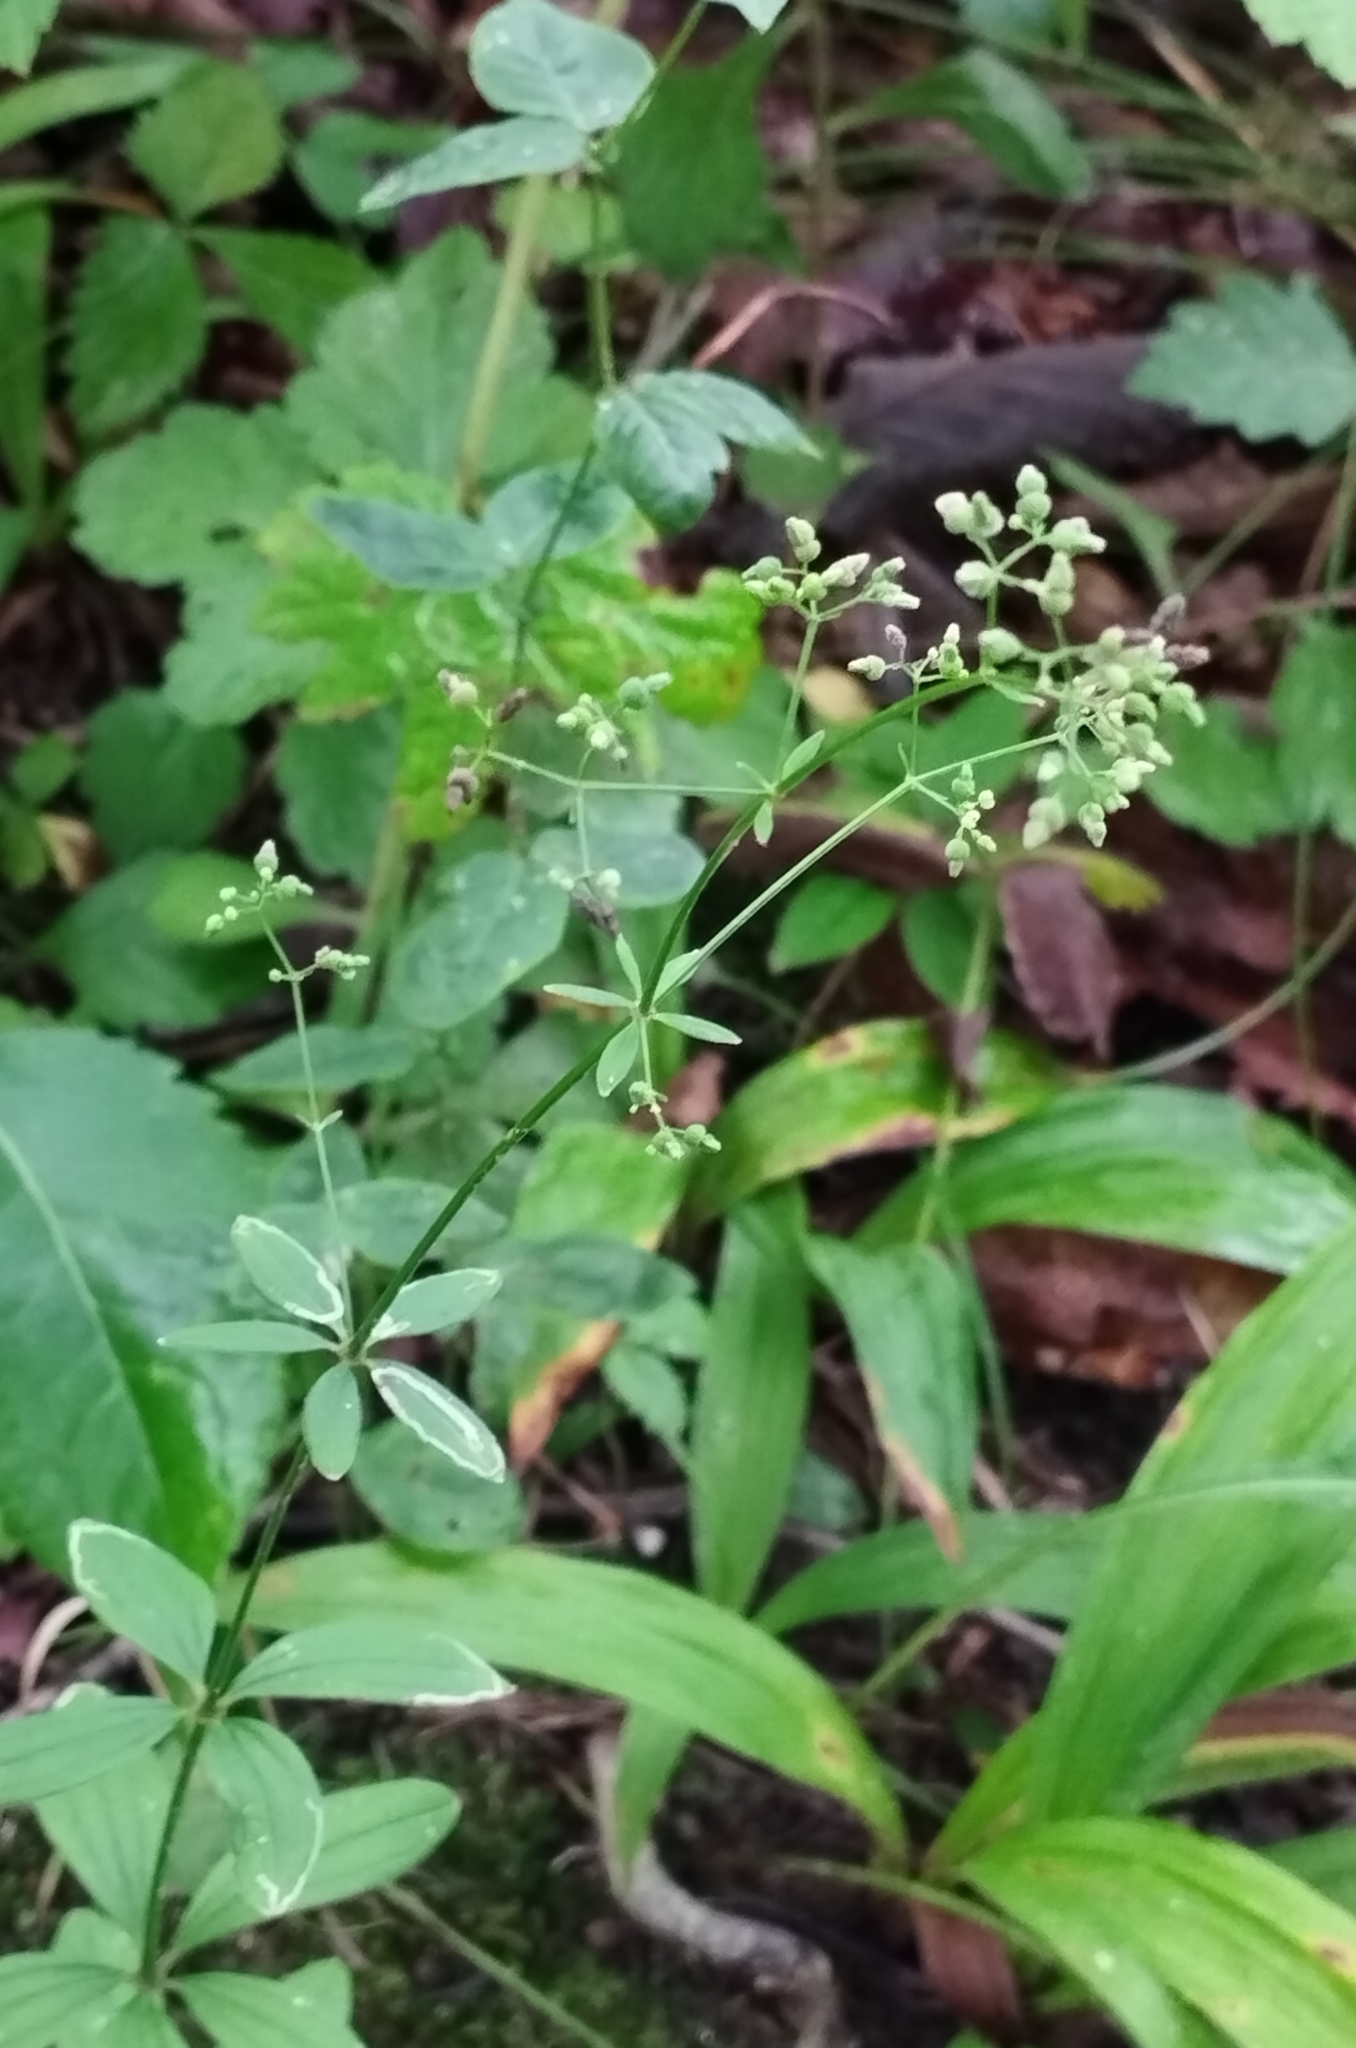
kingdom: Plantae
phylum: Tracheophyta
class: Magnoliopsida
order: Gentianales
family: Rubiaceae
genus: Galium
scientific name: Galium maximowiczii
